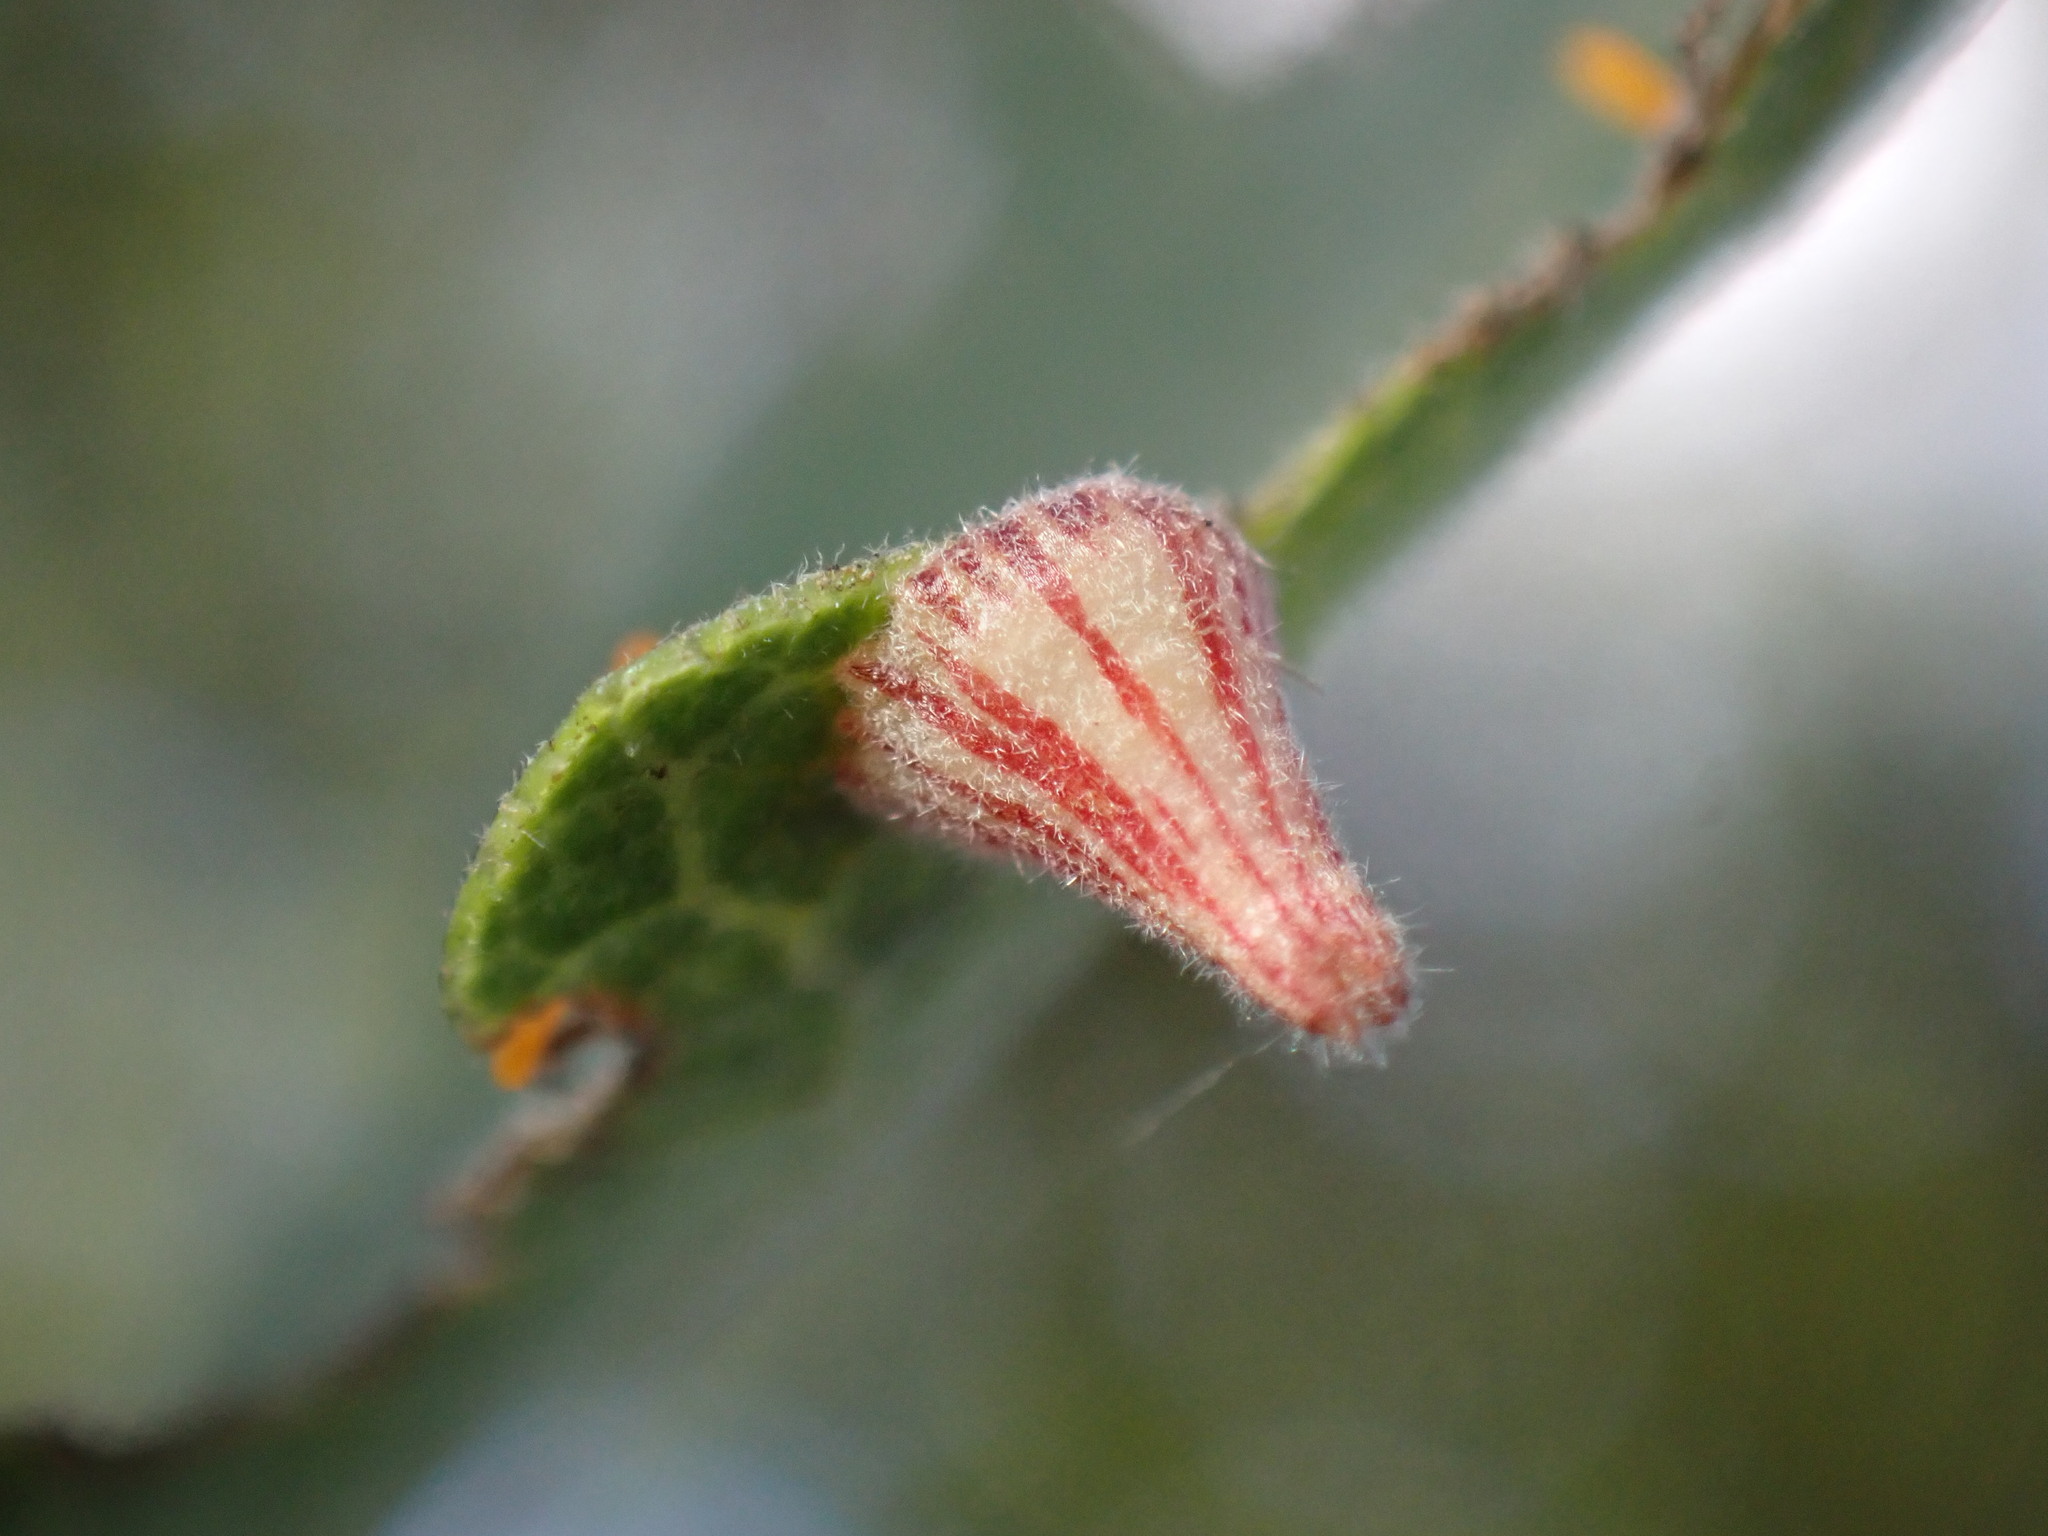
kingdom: Animalia
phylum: Arthropoda
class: Insecta
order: Hymenoptera
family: Cynipidae
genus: Andricus
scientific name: Andricus
